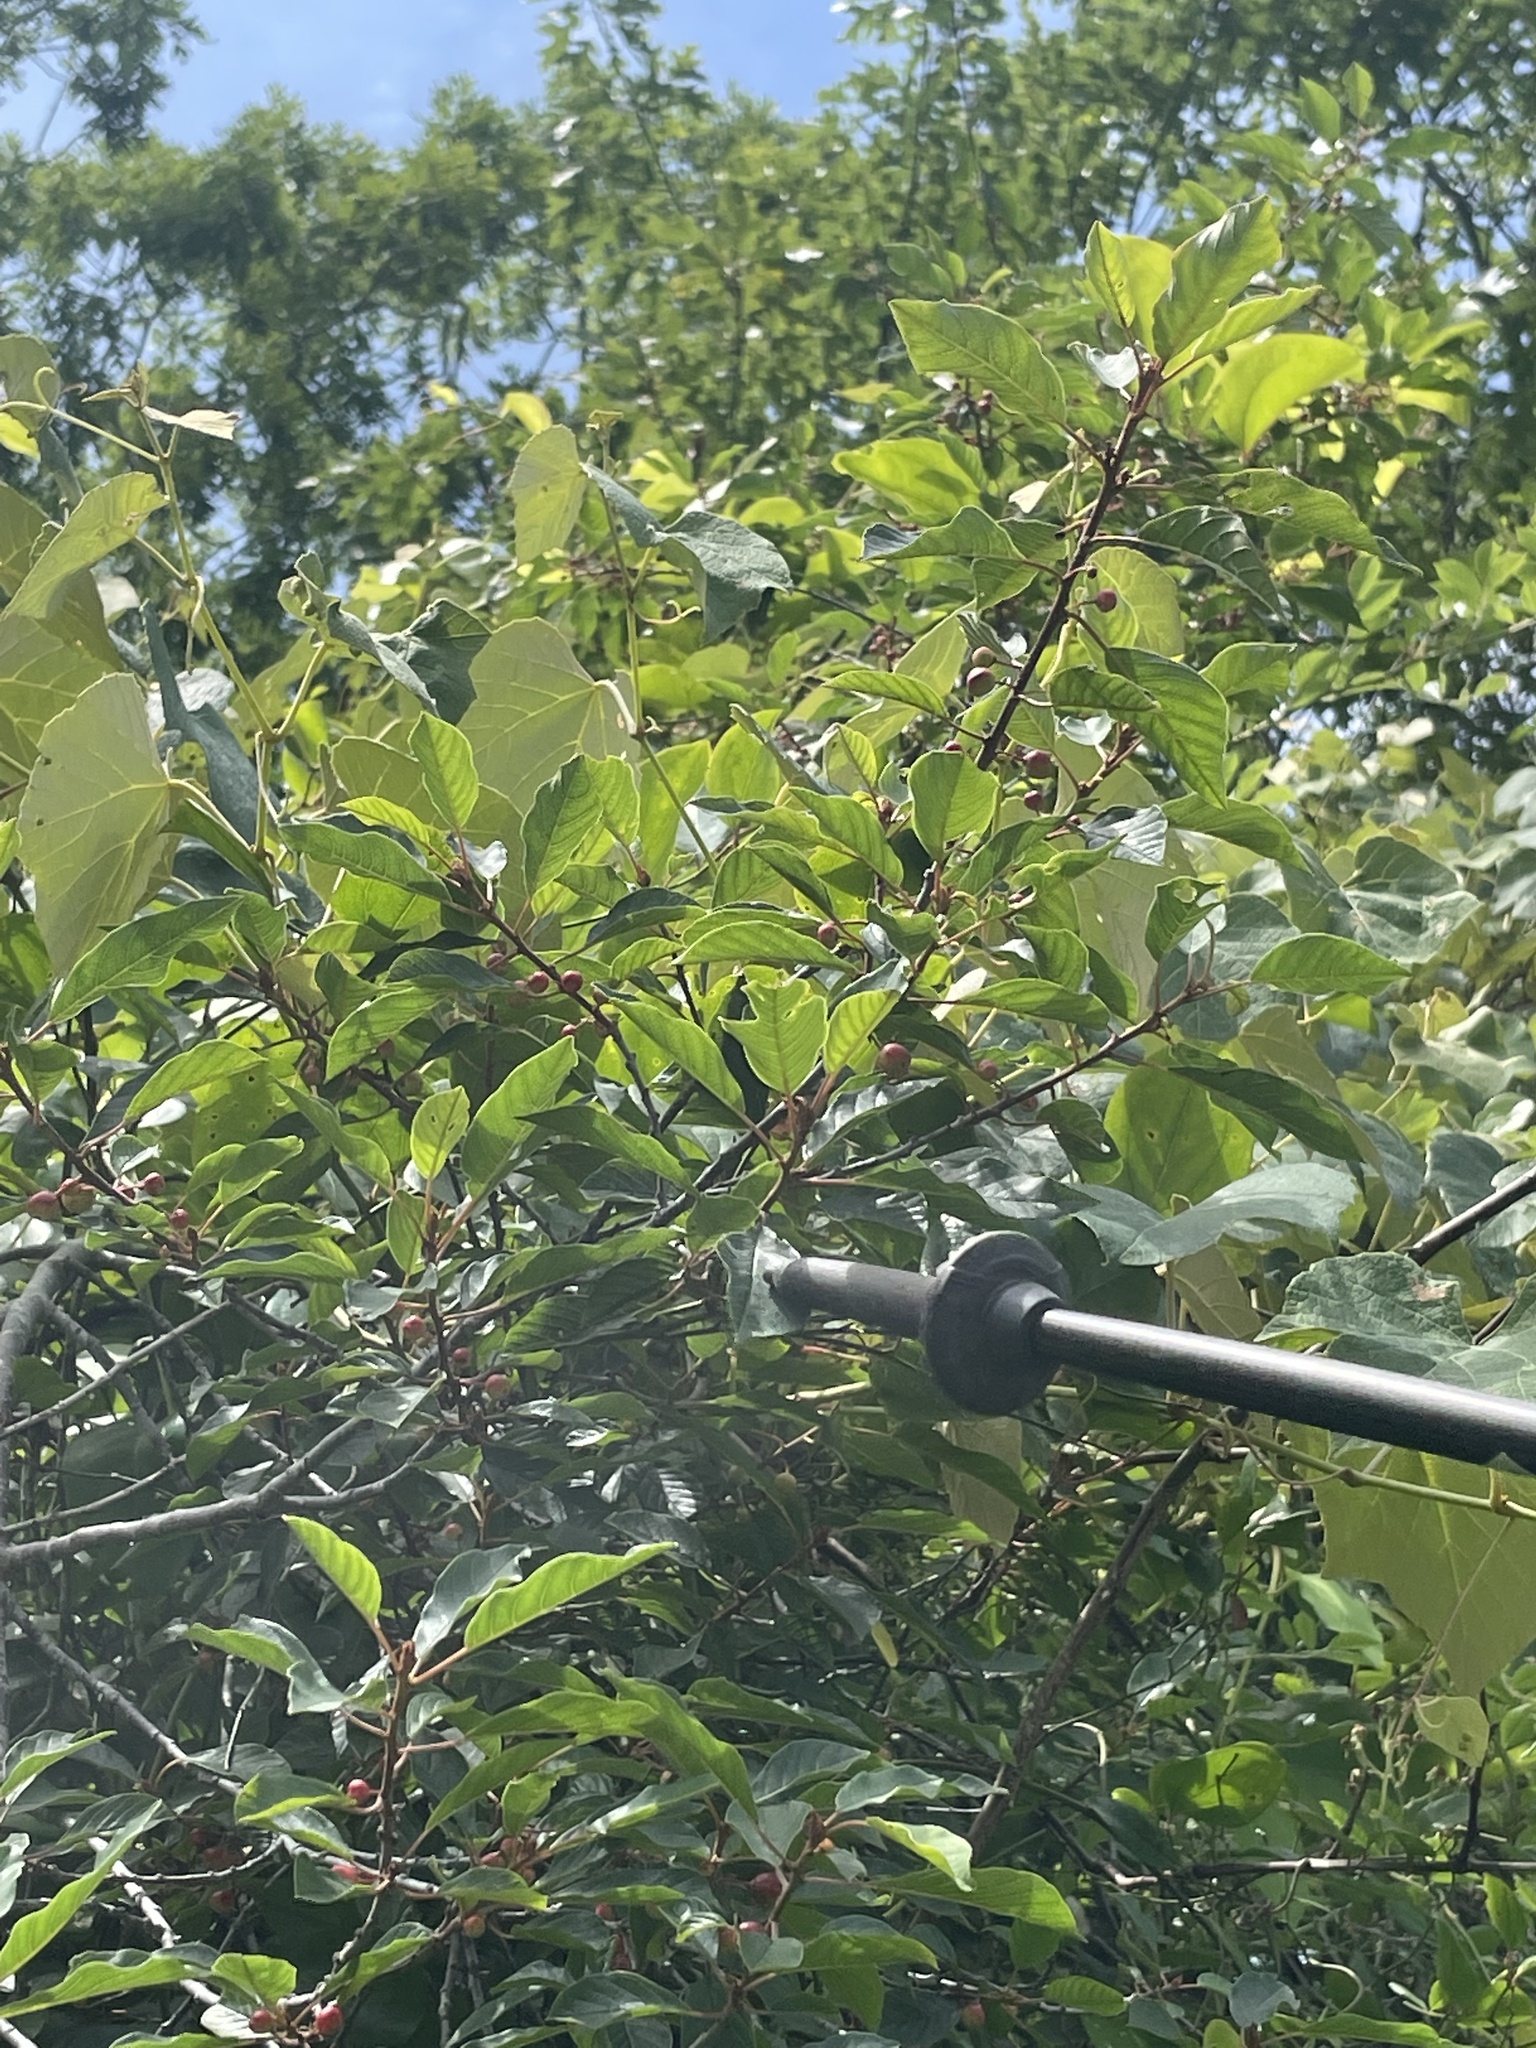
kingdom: Plantae
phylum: Tracheophyta
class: Magnoliopsida
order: Rosales
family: Rhamnaceae
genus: Frangula
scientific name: Frangula alnus
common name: Alder buckthorn
